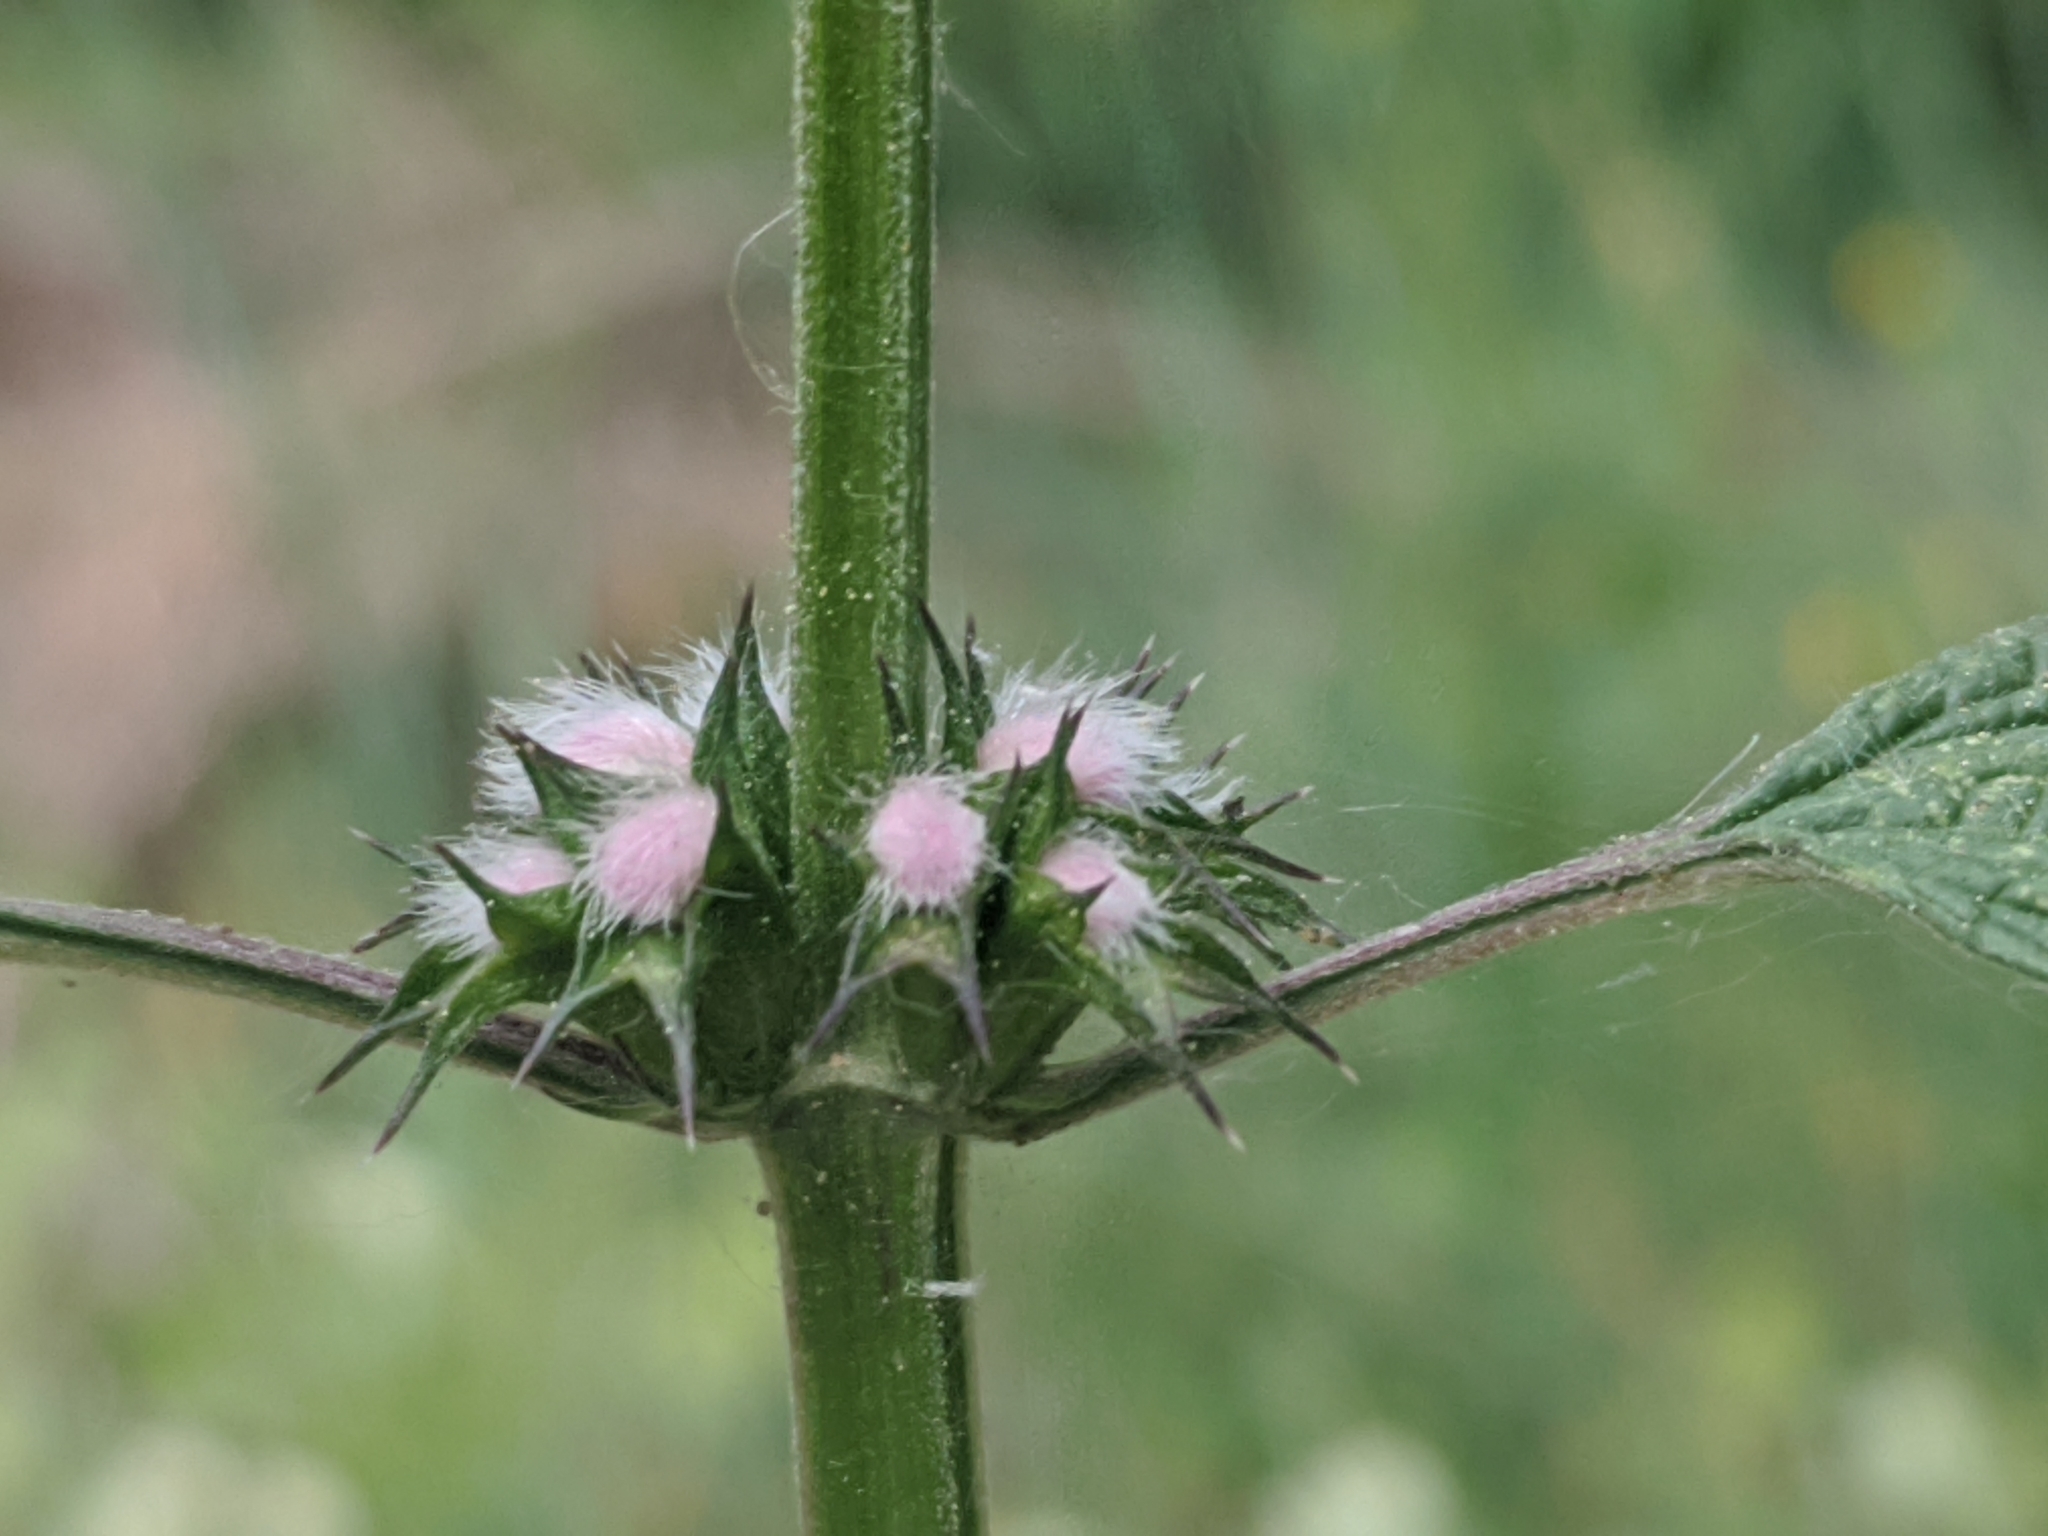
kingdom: Plantae
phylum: Tracheophyta
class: Magnoliopsida
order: Lamiales
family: Lamiaceae
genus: Leonurus
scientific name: Leonurus cardiaca
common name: Motherwort
